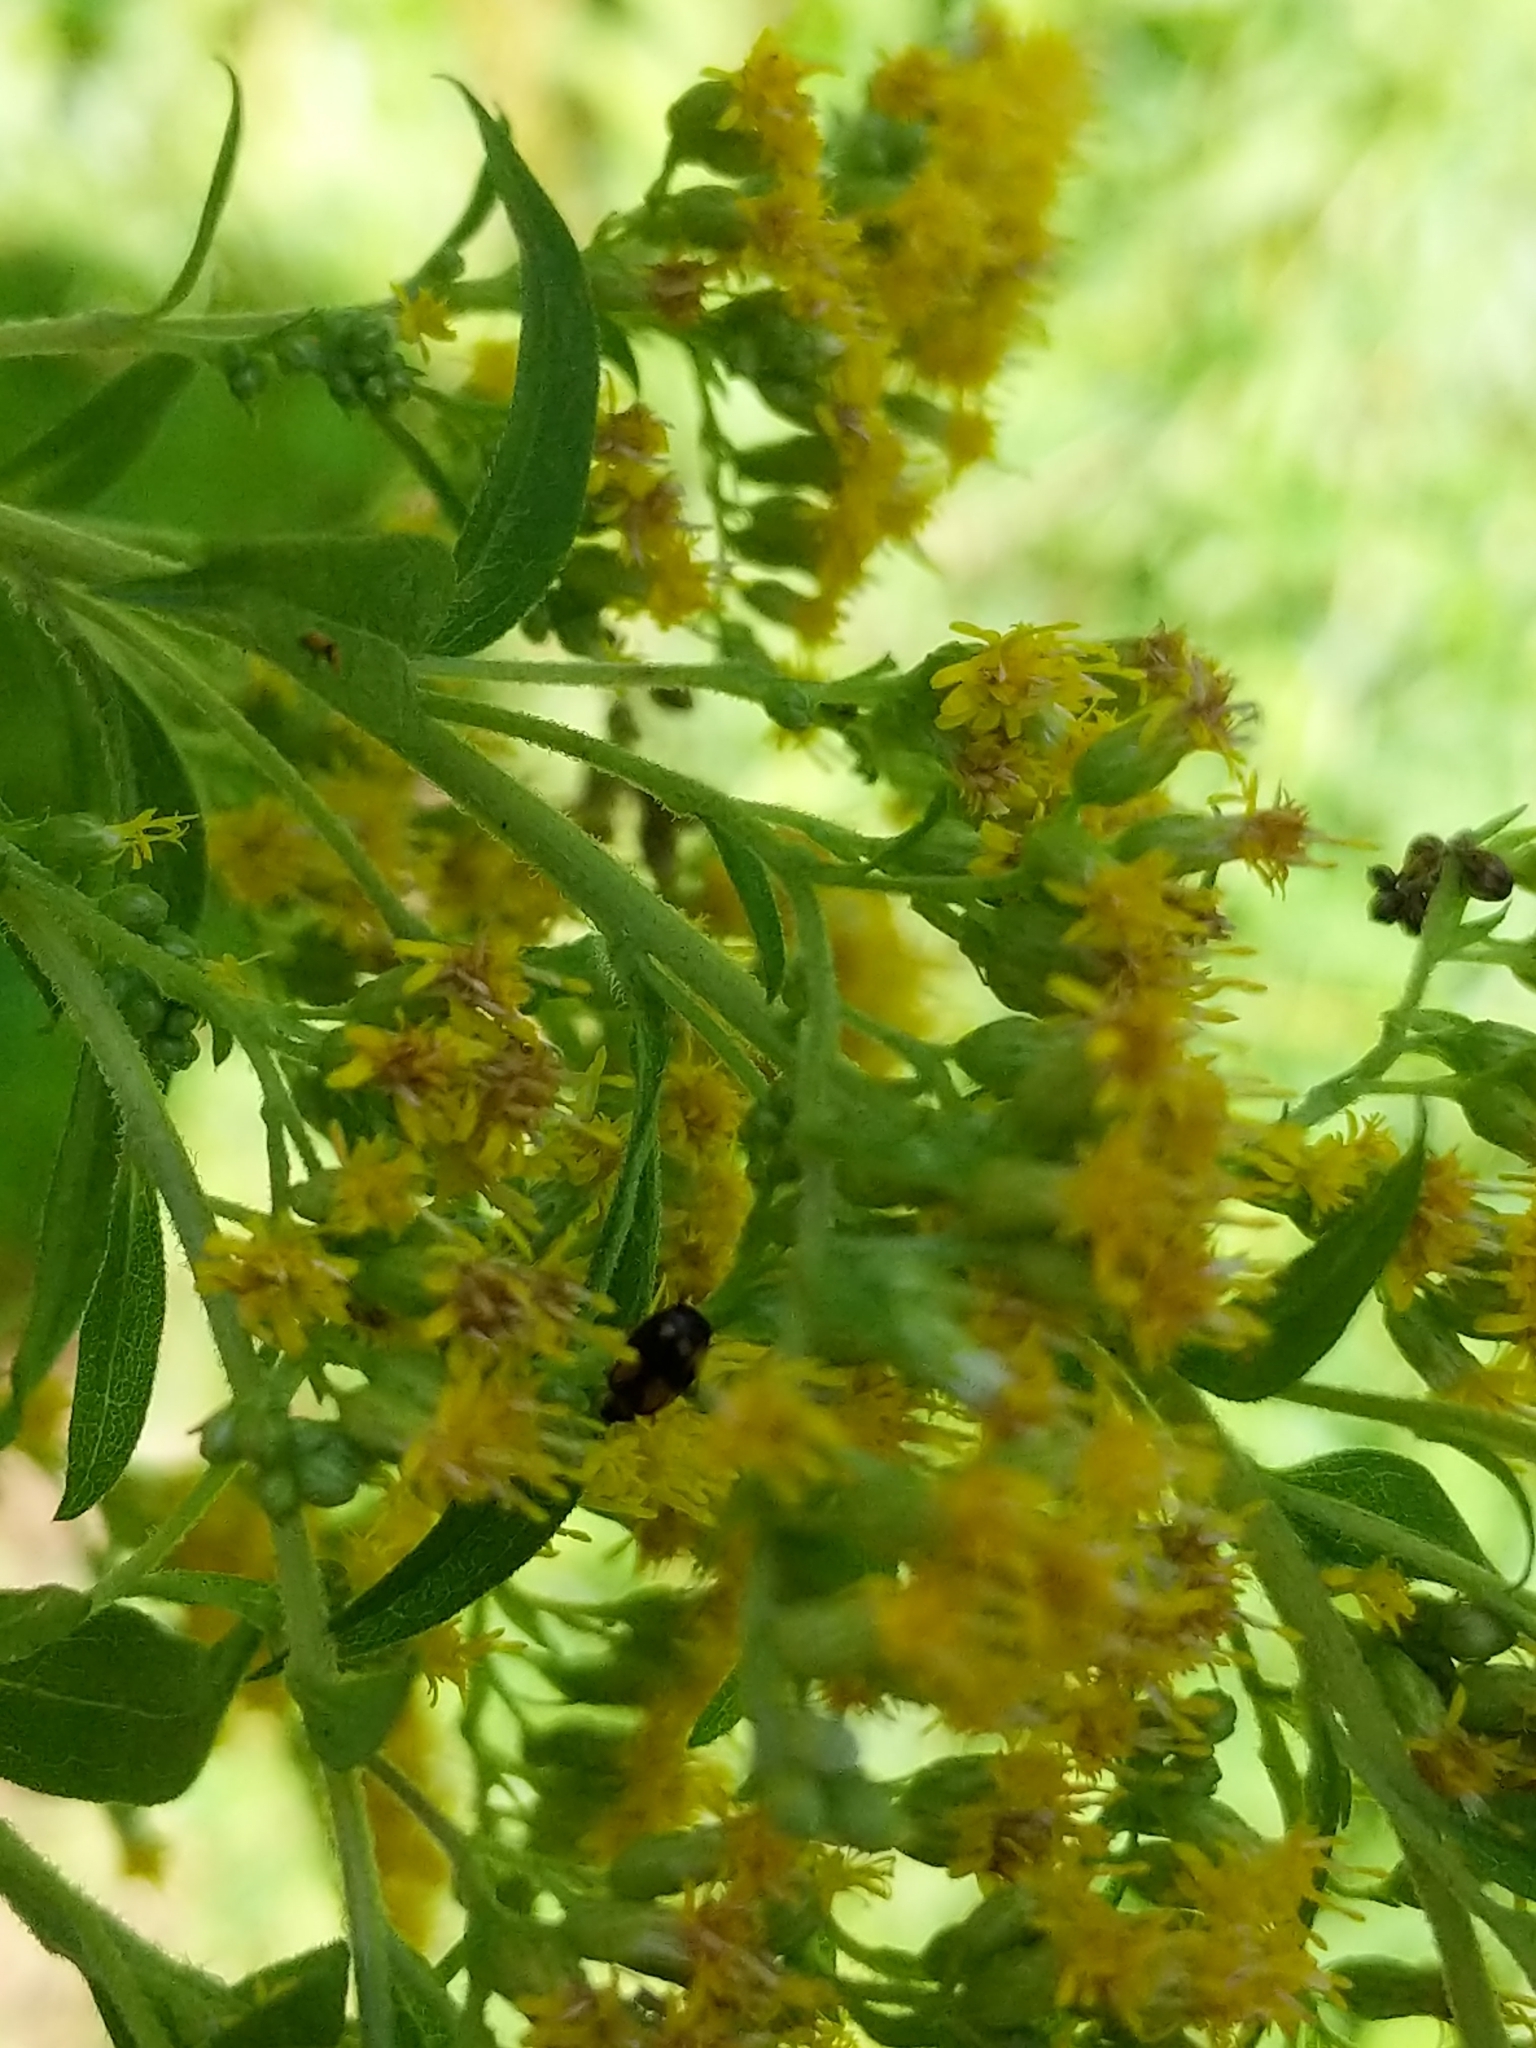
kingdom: Animalia
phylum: Arthropoda
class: Insecta
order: Coleoptera
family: Carabidae
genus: Lebia
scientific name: Lebia ornata
